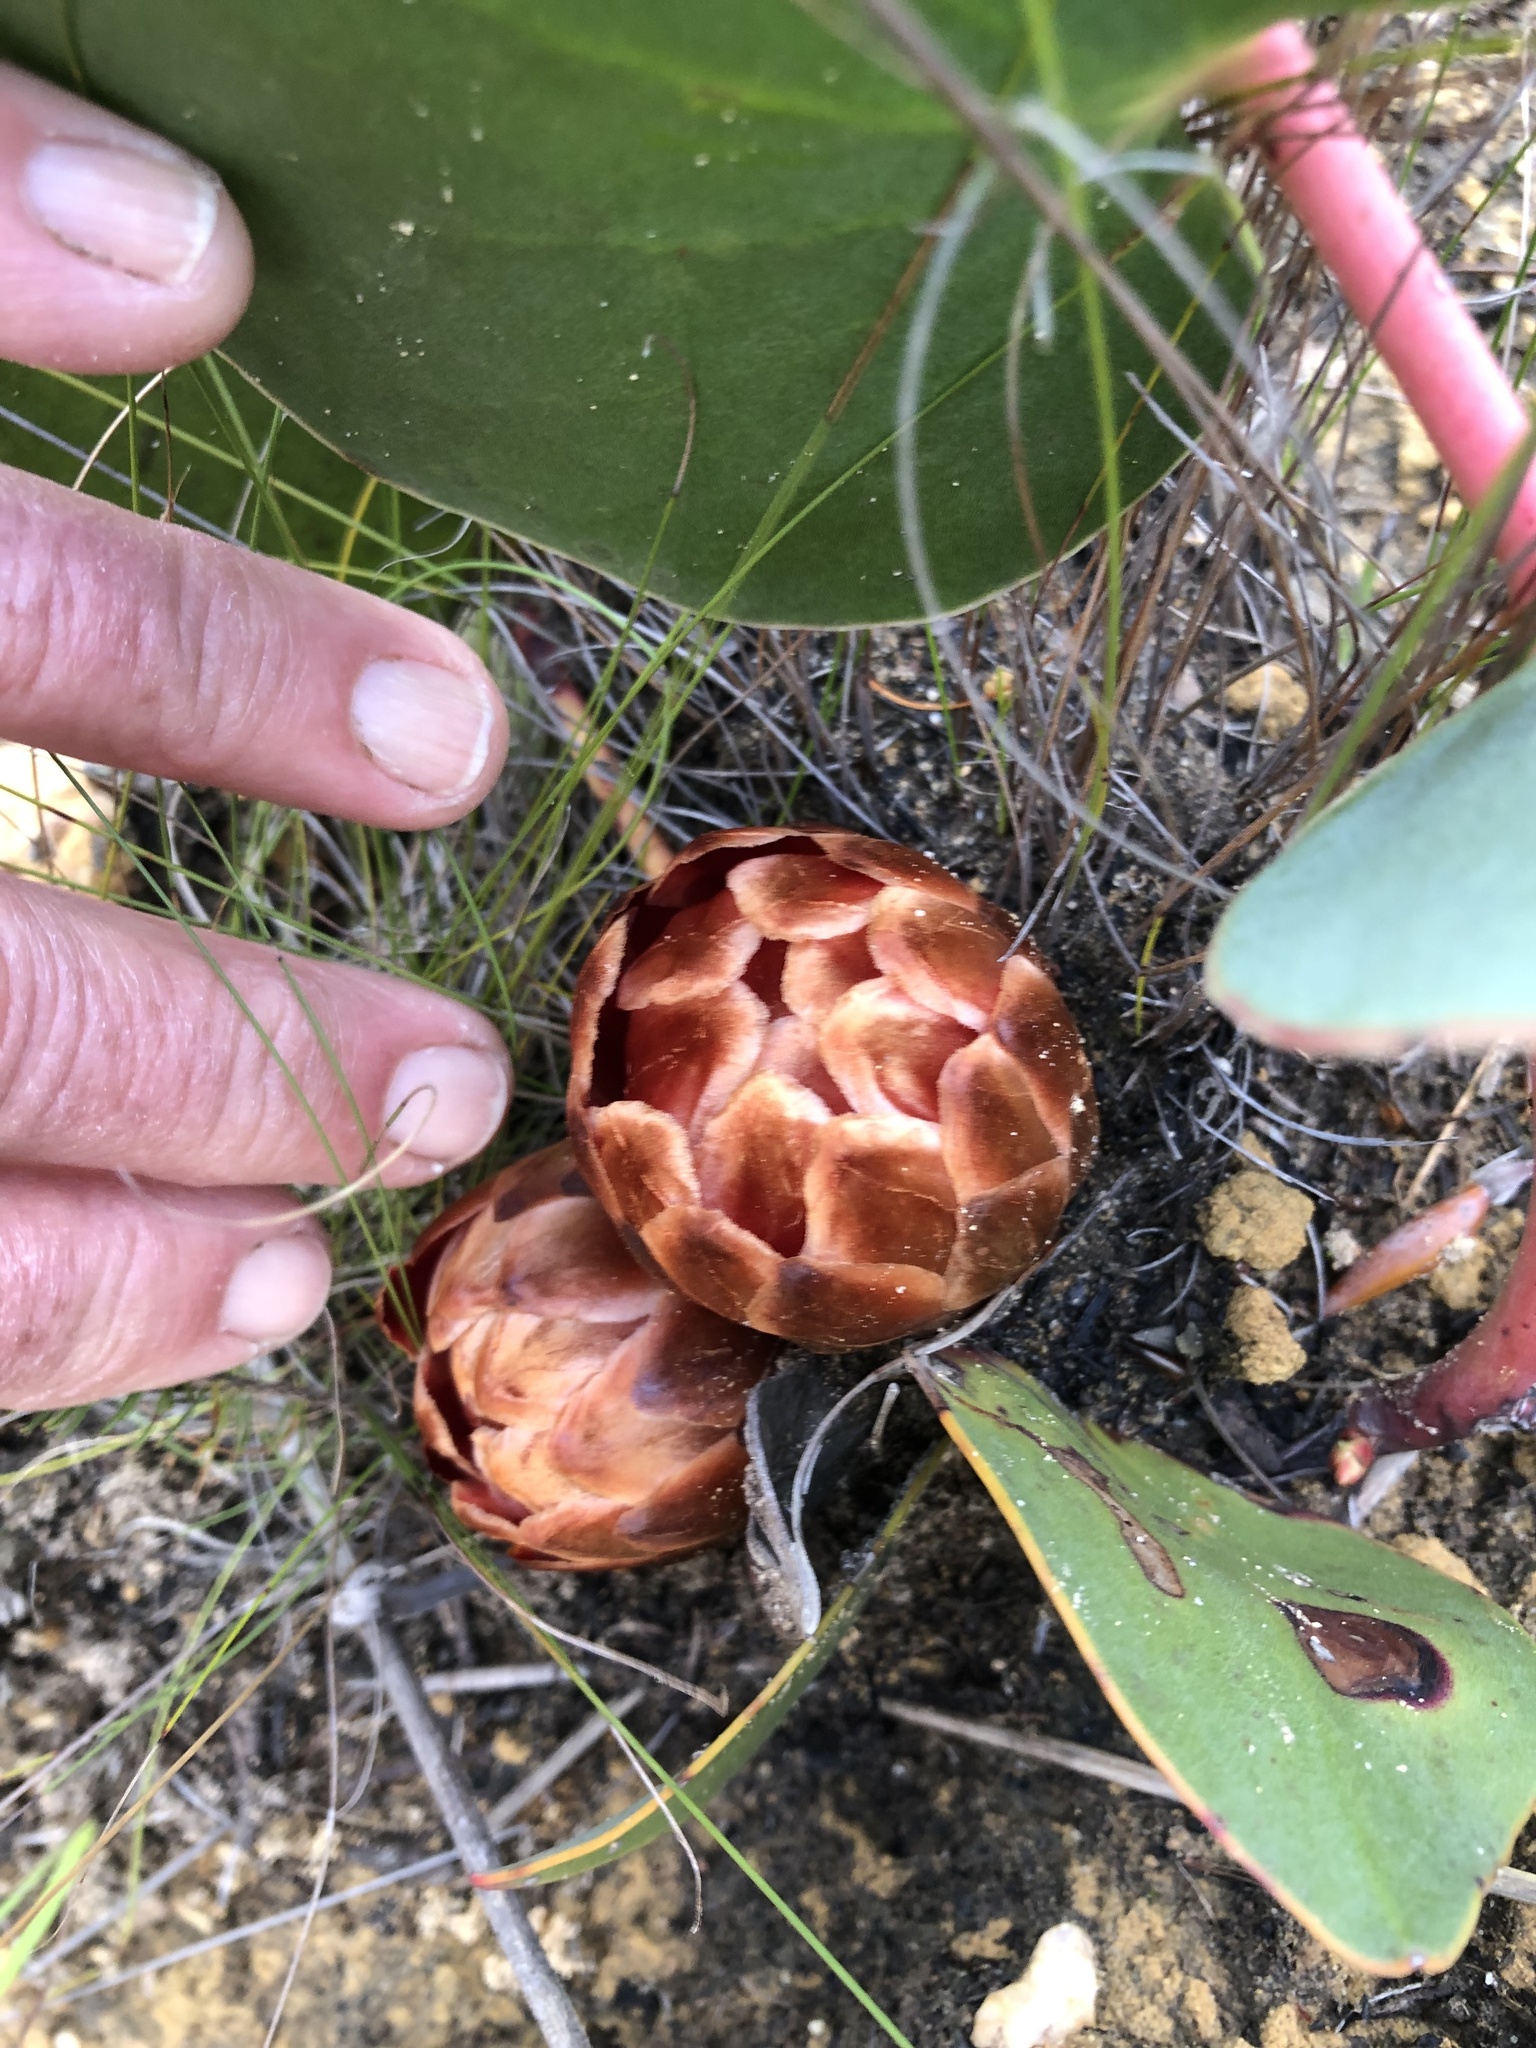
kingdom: Plantae
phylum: Tracheophyta
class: Magnoliopsida
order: Proteales
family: Proteaceae
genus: Protea
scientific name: Protea cordata
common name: Heart-leaf sugarbush
